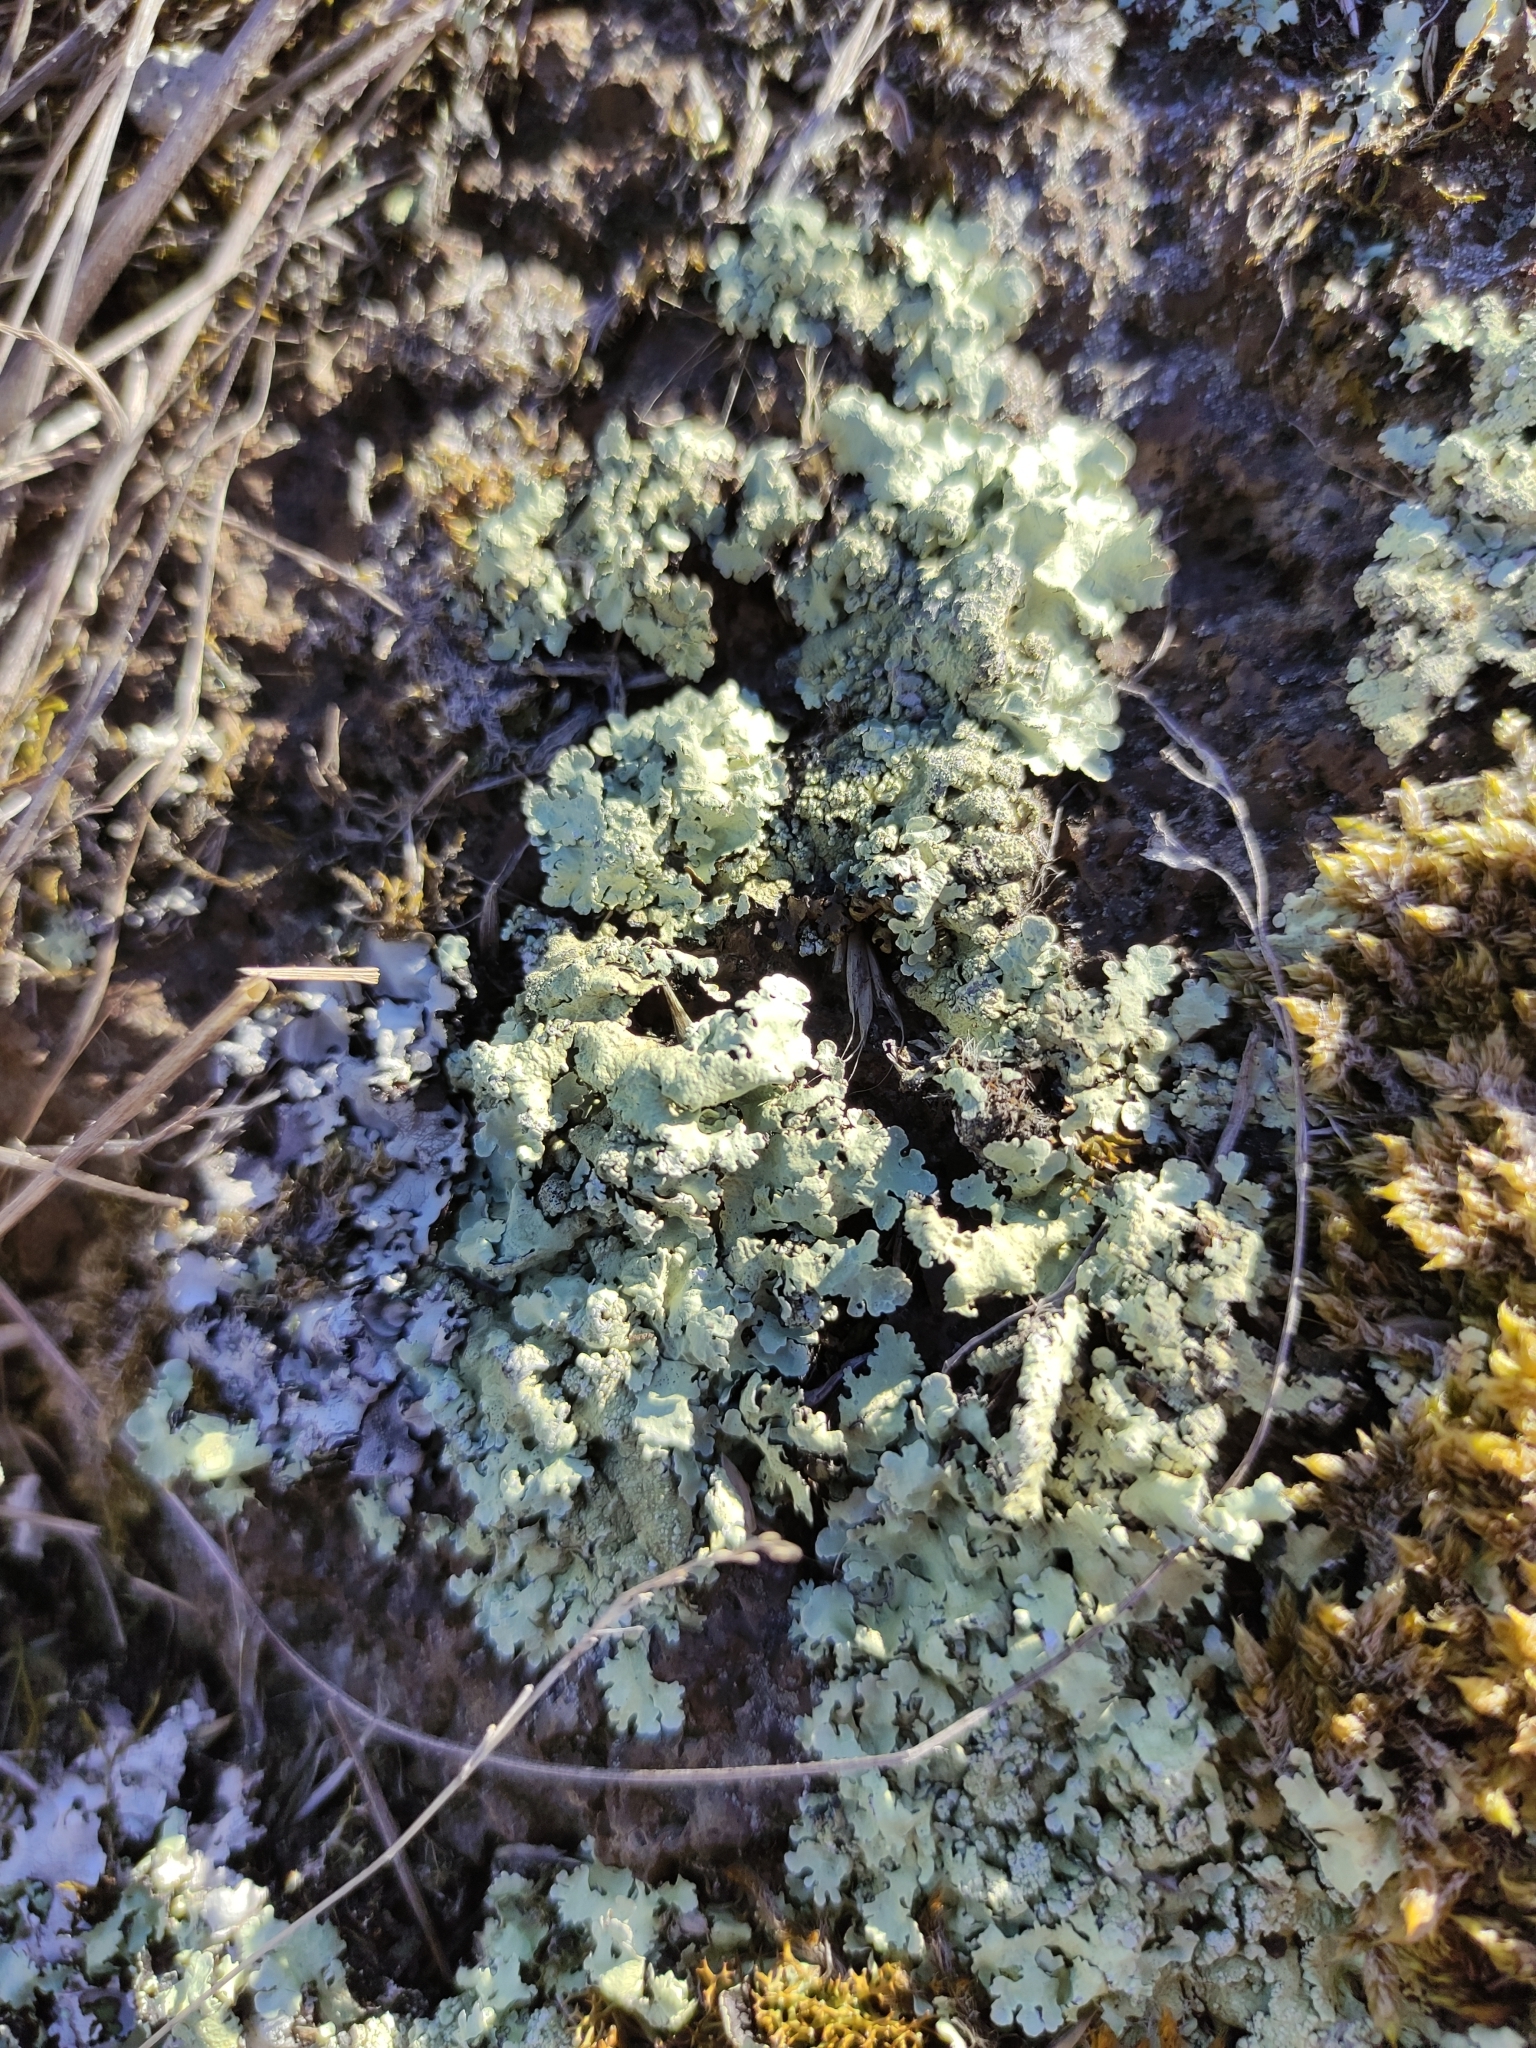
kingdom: Fungi
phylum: Ascomycota
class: Lecanoromycetes
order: Lecanorales
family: Parmeliaceae
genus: Flavoparmelia
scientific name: Flavoparmelia caperata
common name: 40-mile per hour lichen
